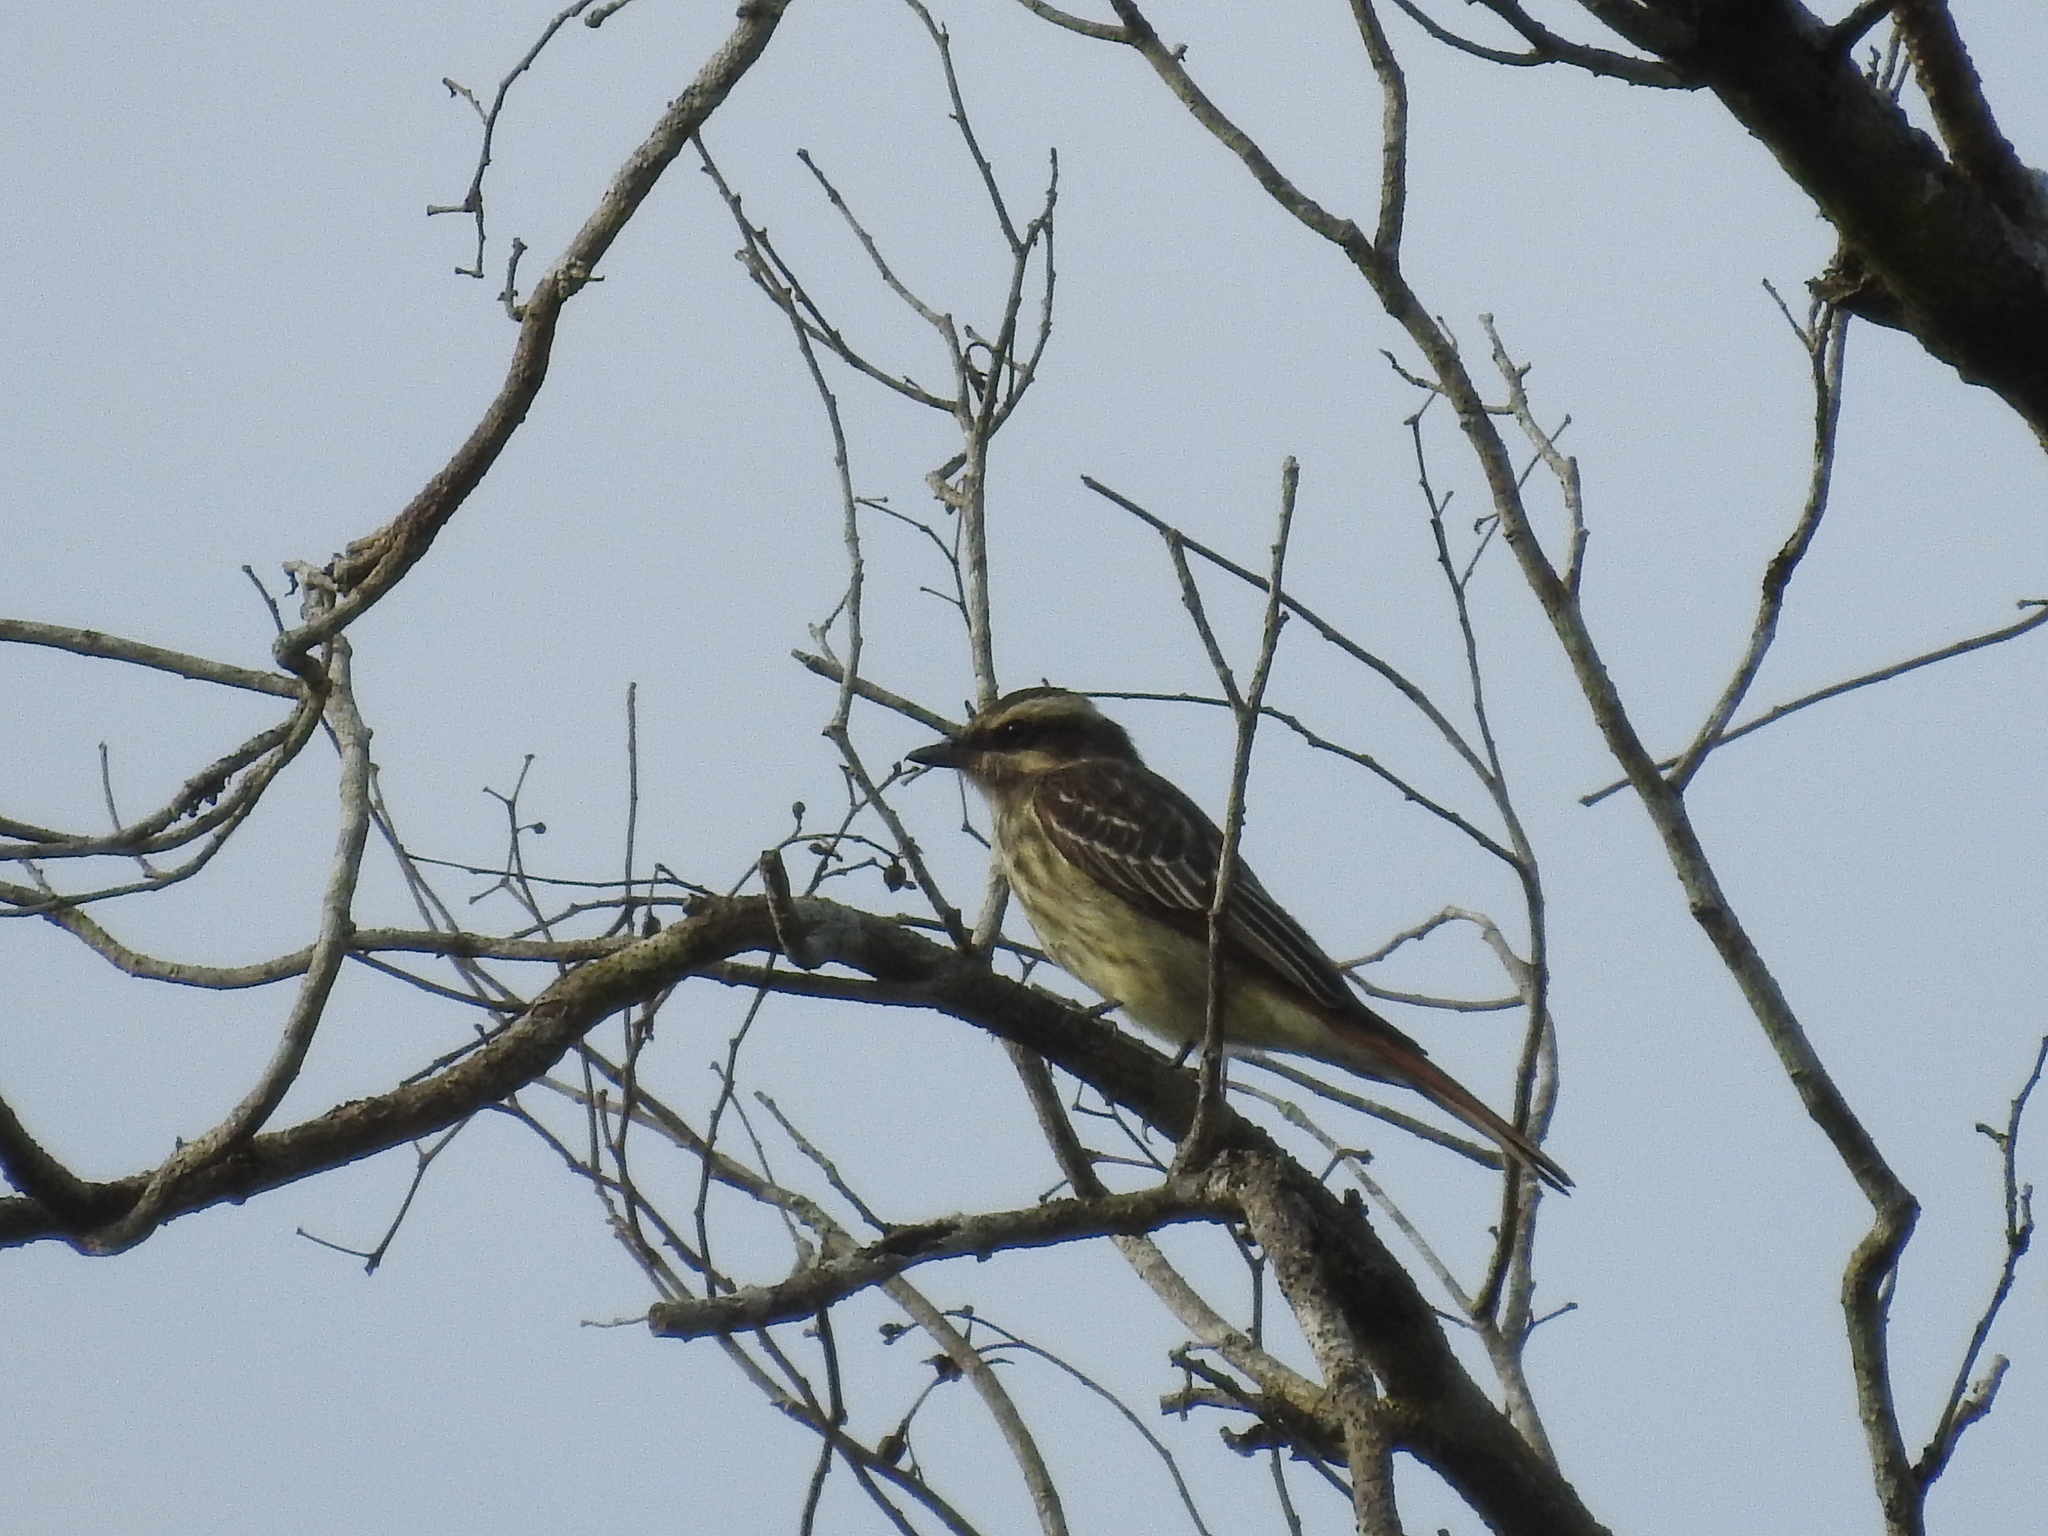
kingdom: Animalia
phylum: Chordata
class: Aves
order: Passeriformes
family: Tyrannidae
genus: Empidonomus
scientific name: Empidonomus varius
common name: Variegated flycatcher
